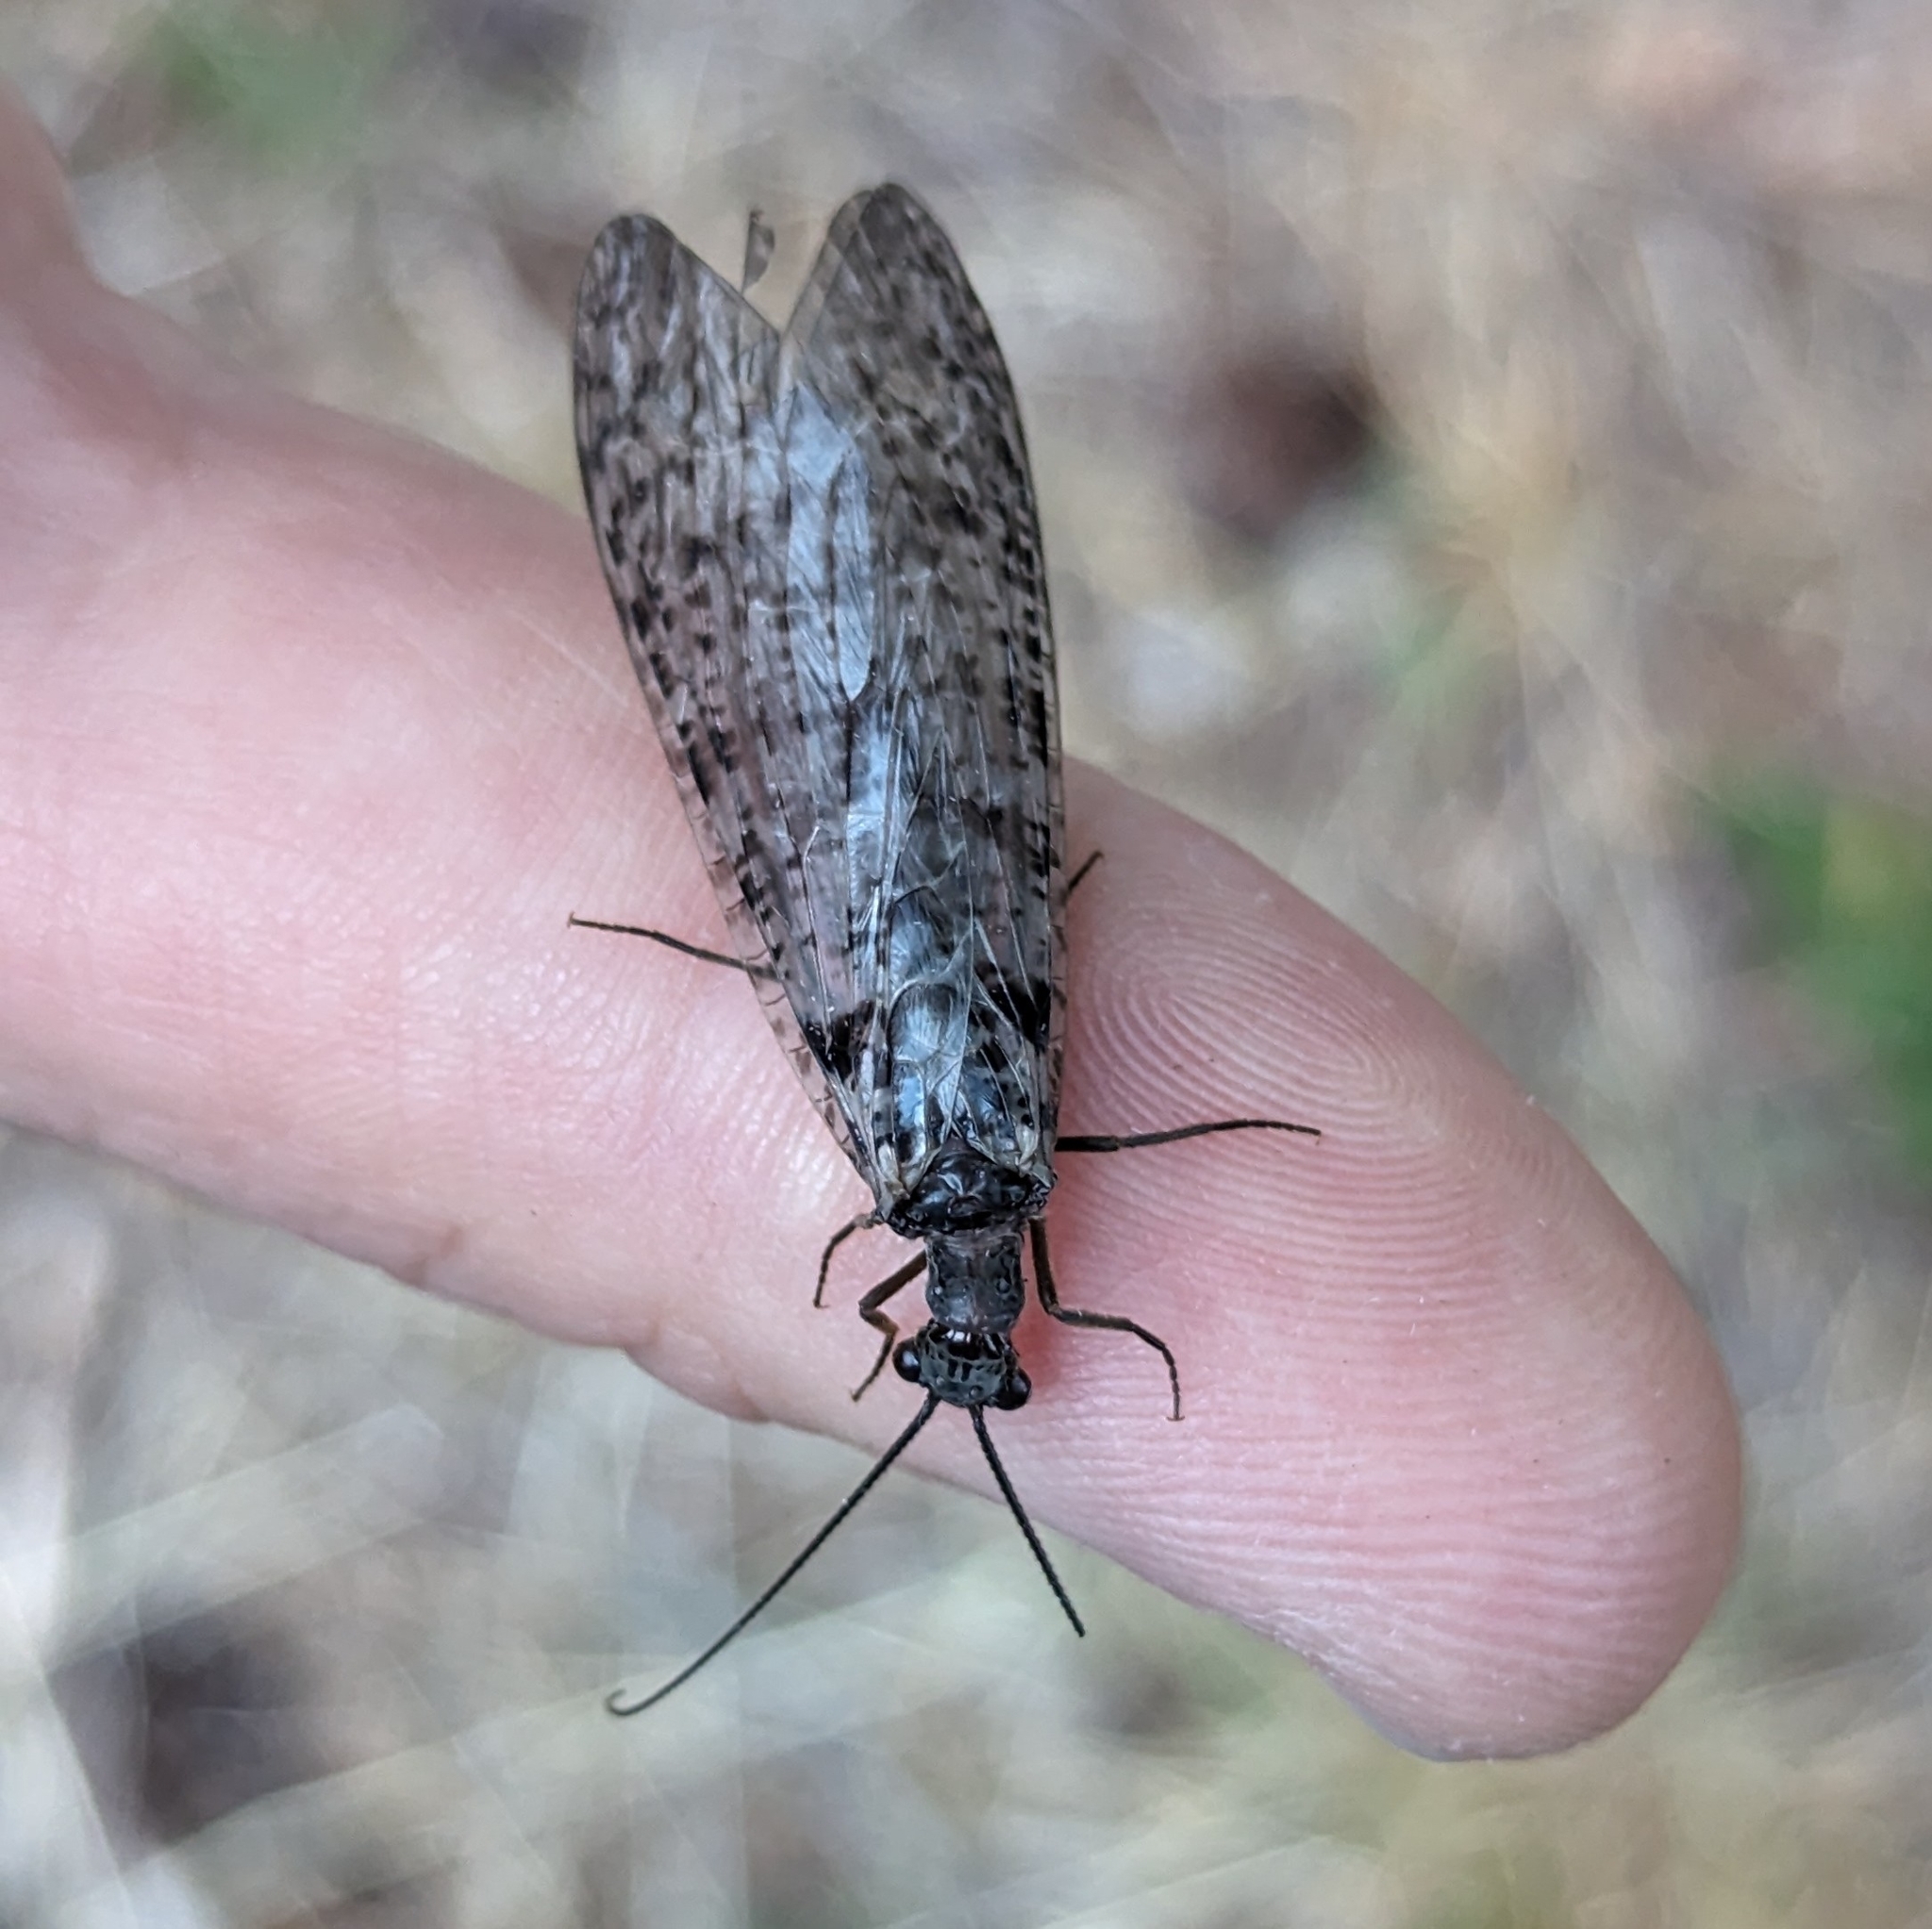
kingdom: Animalia
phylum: Arthropoda
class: Insecta
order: Megaloptera
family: Corydalidae
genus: Protochauliodes
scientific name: Protochauliodes spenceri
